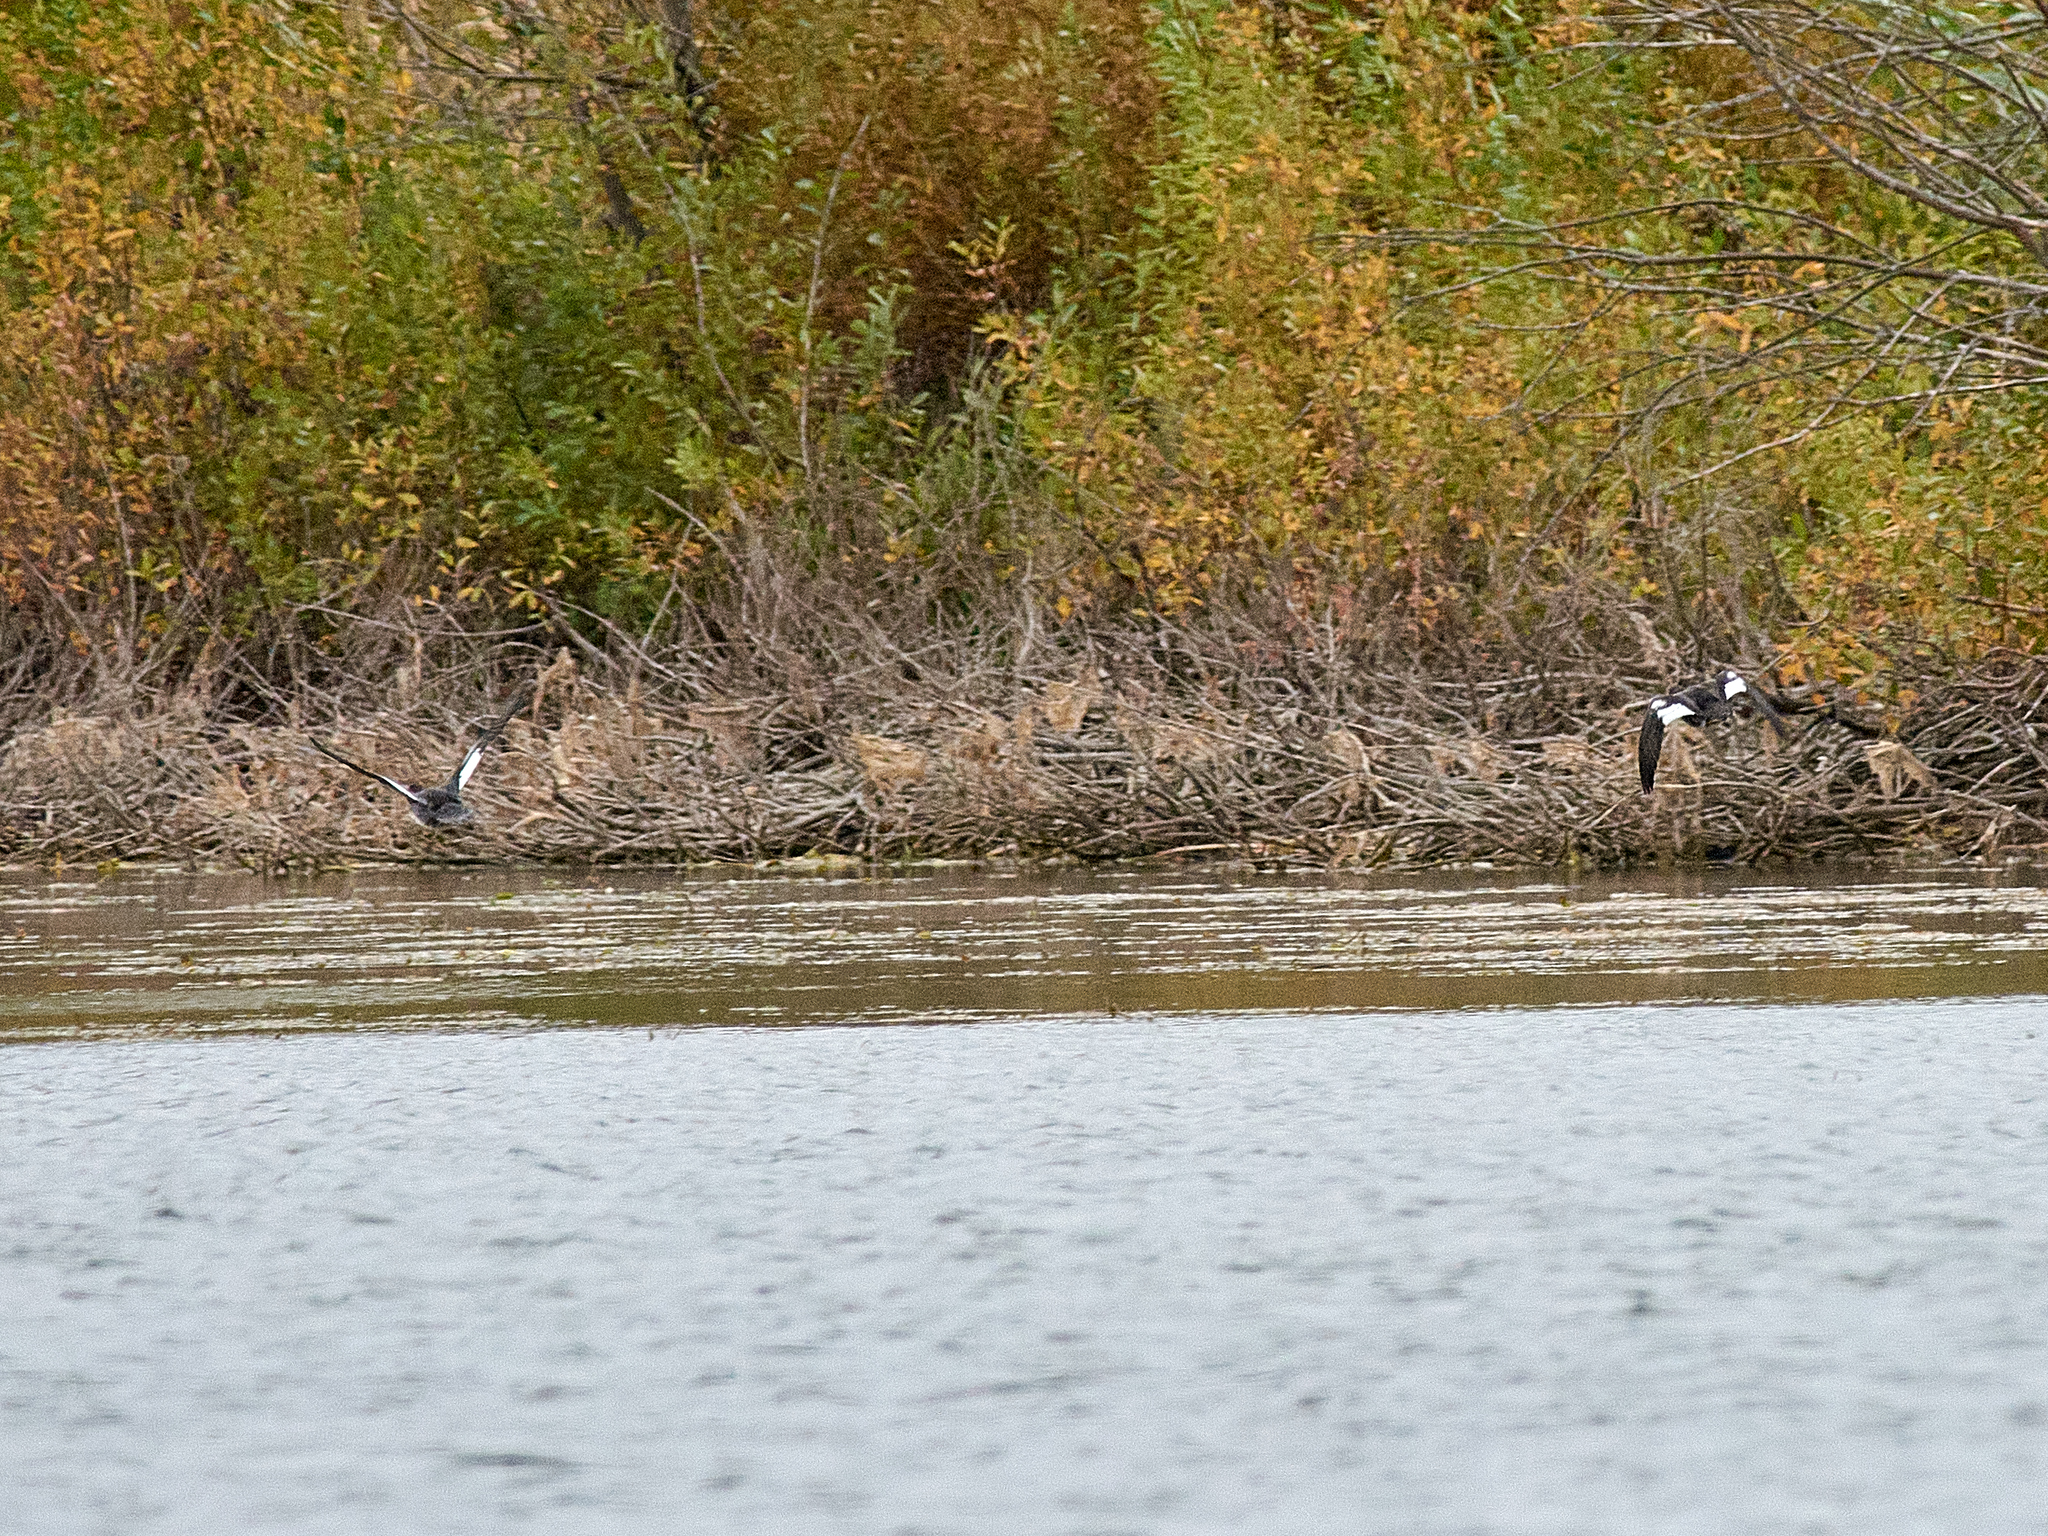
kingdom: Animalia
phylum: Chordata
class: Aves
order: Anseriformes
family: Anatidae
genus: Bucephala
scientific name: Bucephala clangula
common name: Common goldeneye
